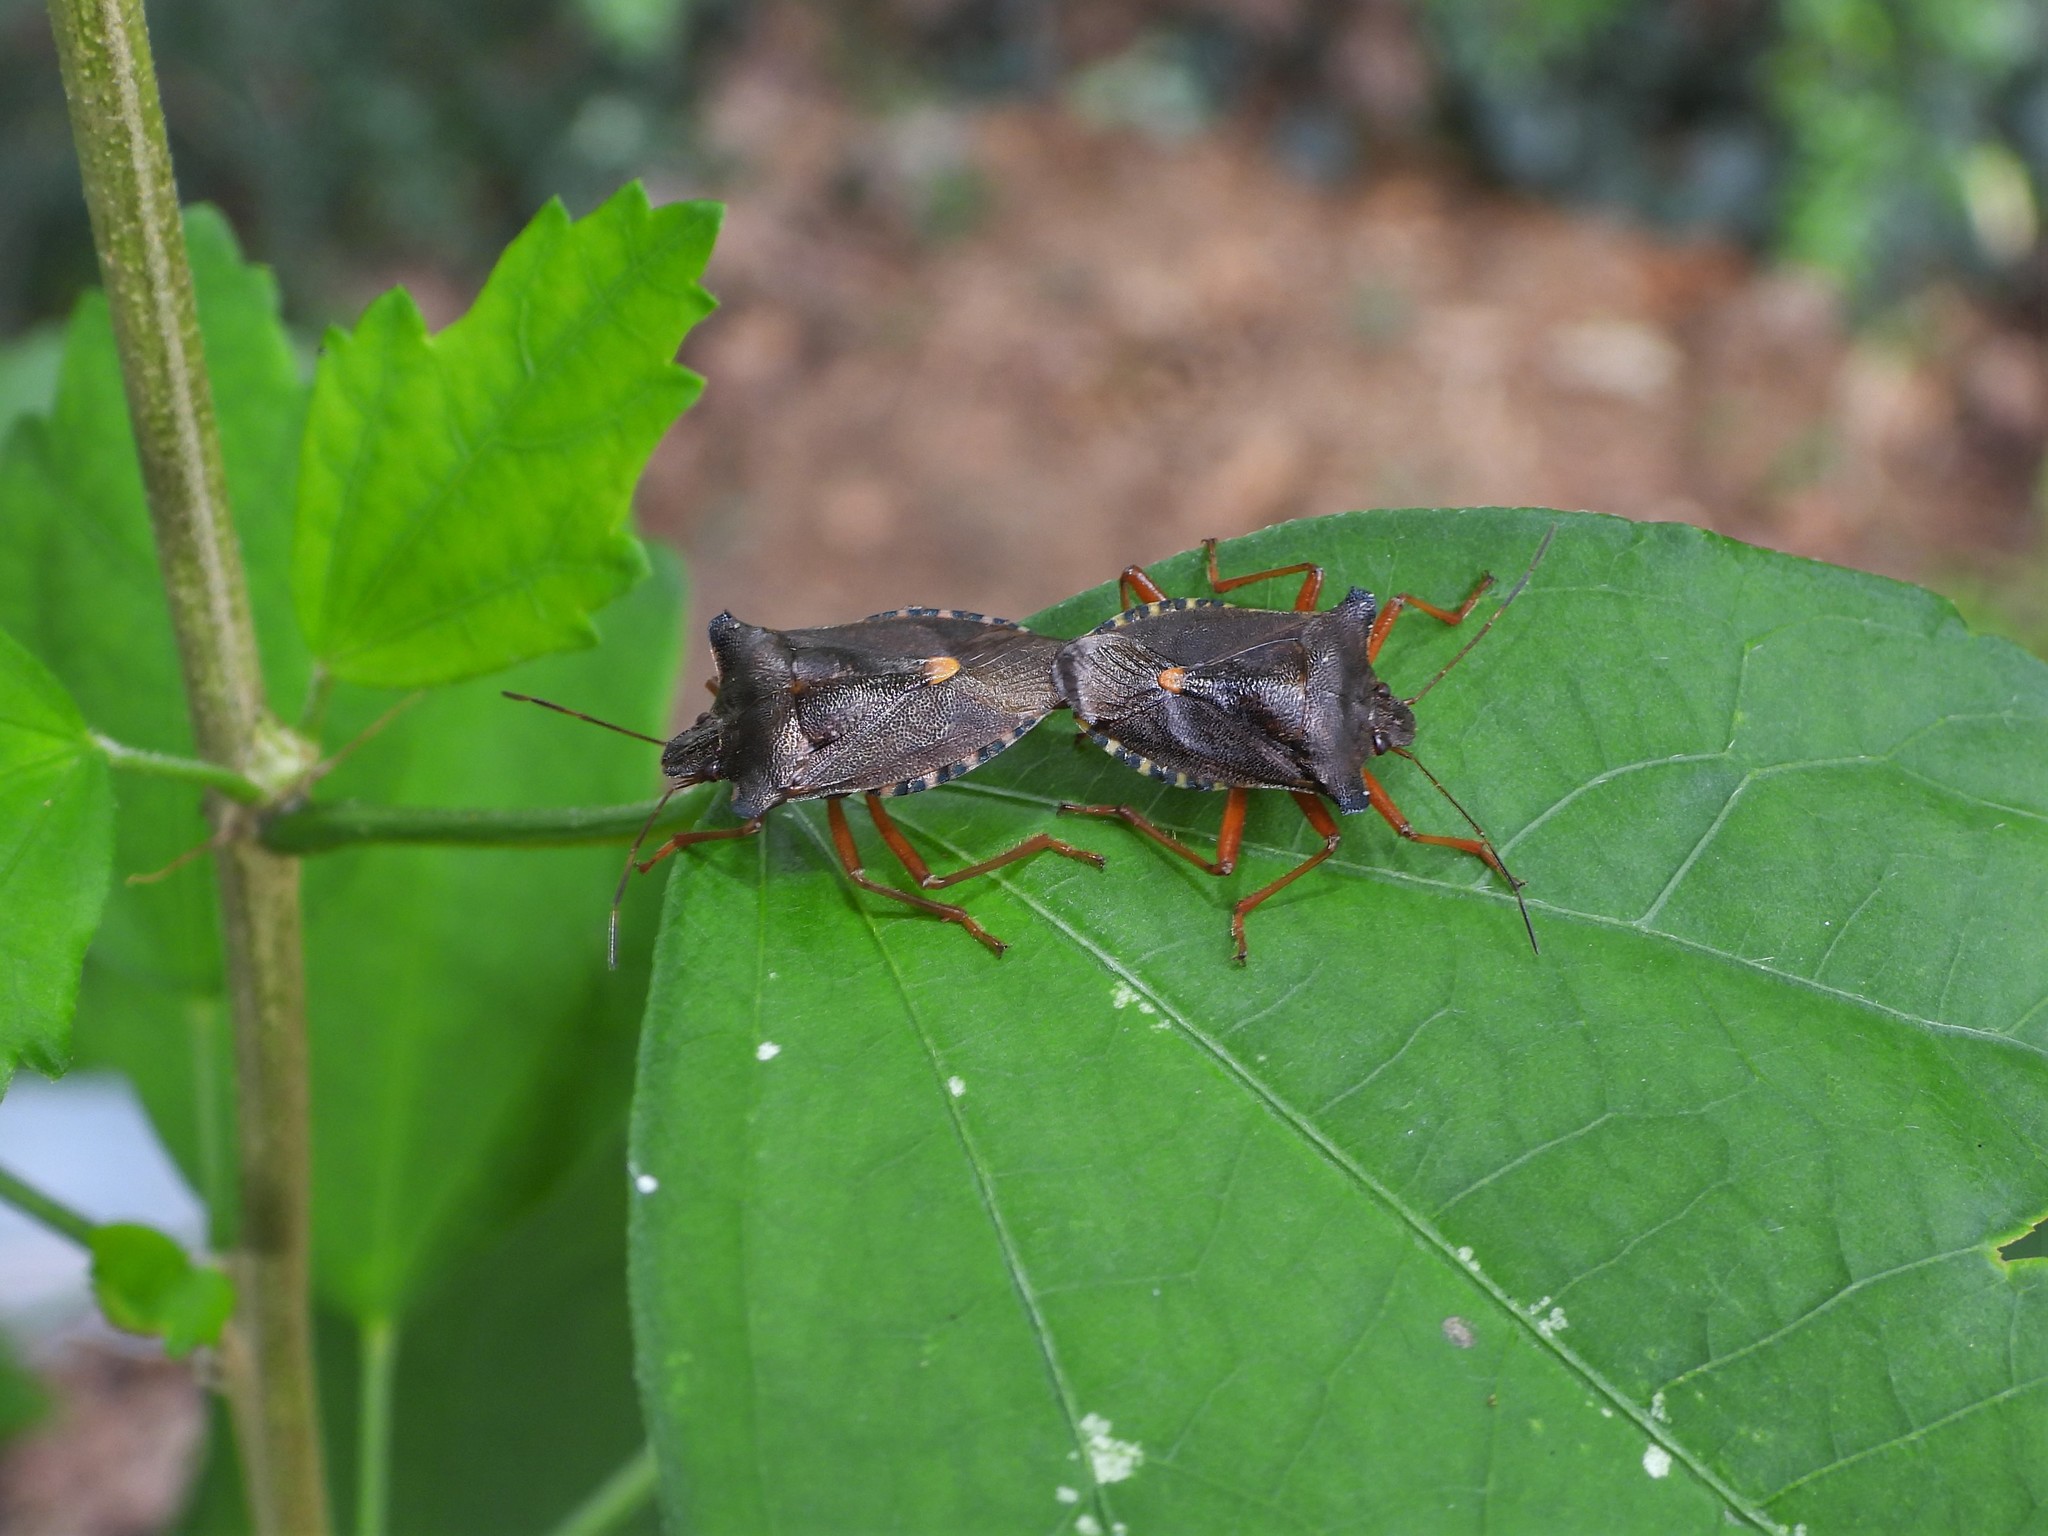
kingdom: Animalia
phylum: Arthropoda
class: Insecta
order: Hemiptera
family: Pentatomidae
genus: Pentatoma
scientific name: Pentatoma rufipes
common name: Forest bug
